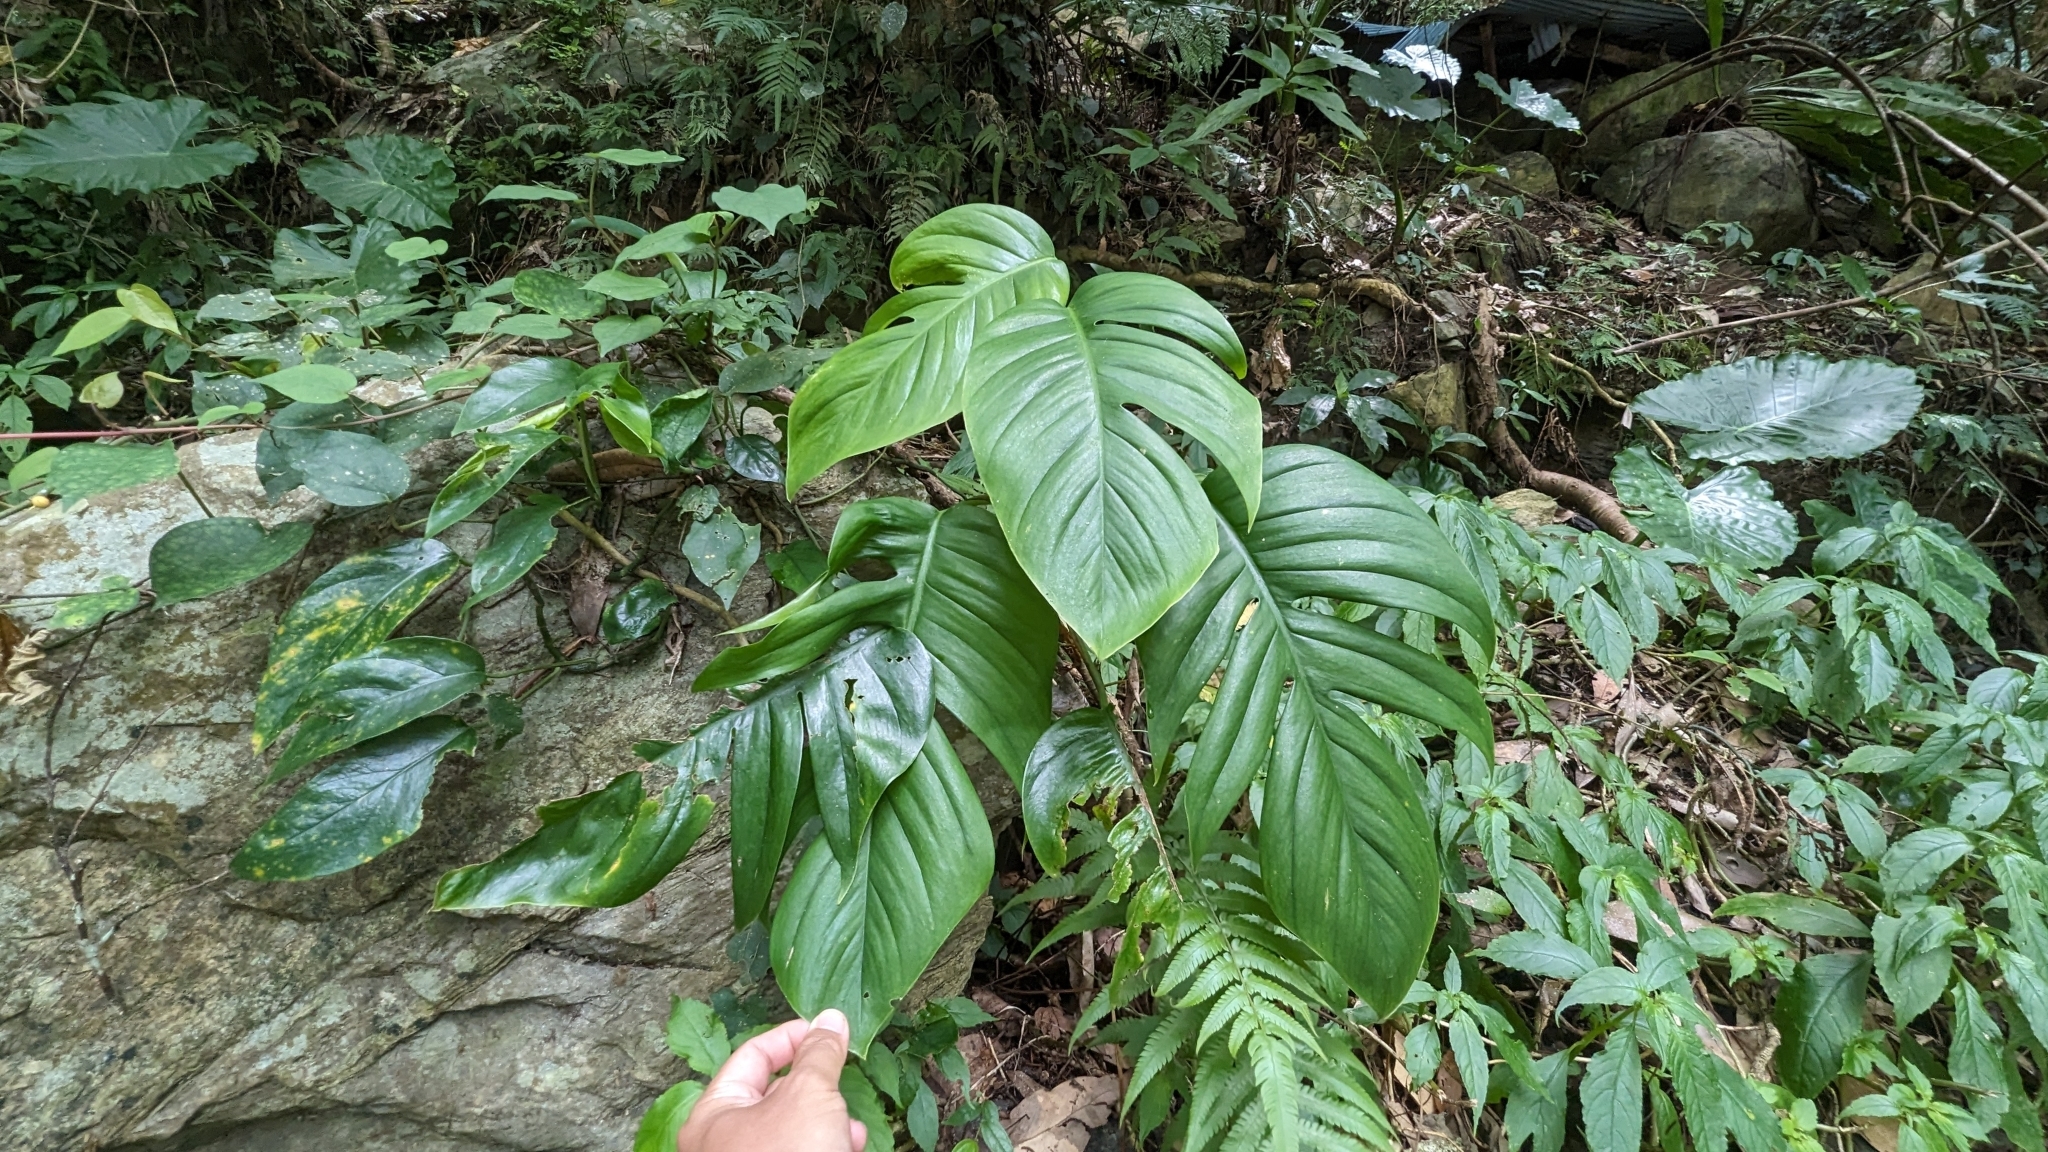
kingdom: Plantae
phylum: Tracheophyta
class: Liliopsida
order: Alismatales
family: Araceae
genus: Epipremnum
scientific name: Epipremnum pinnatum
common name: Centipede tongavine
